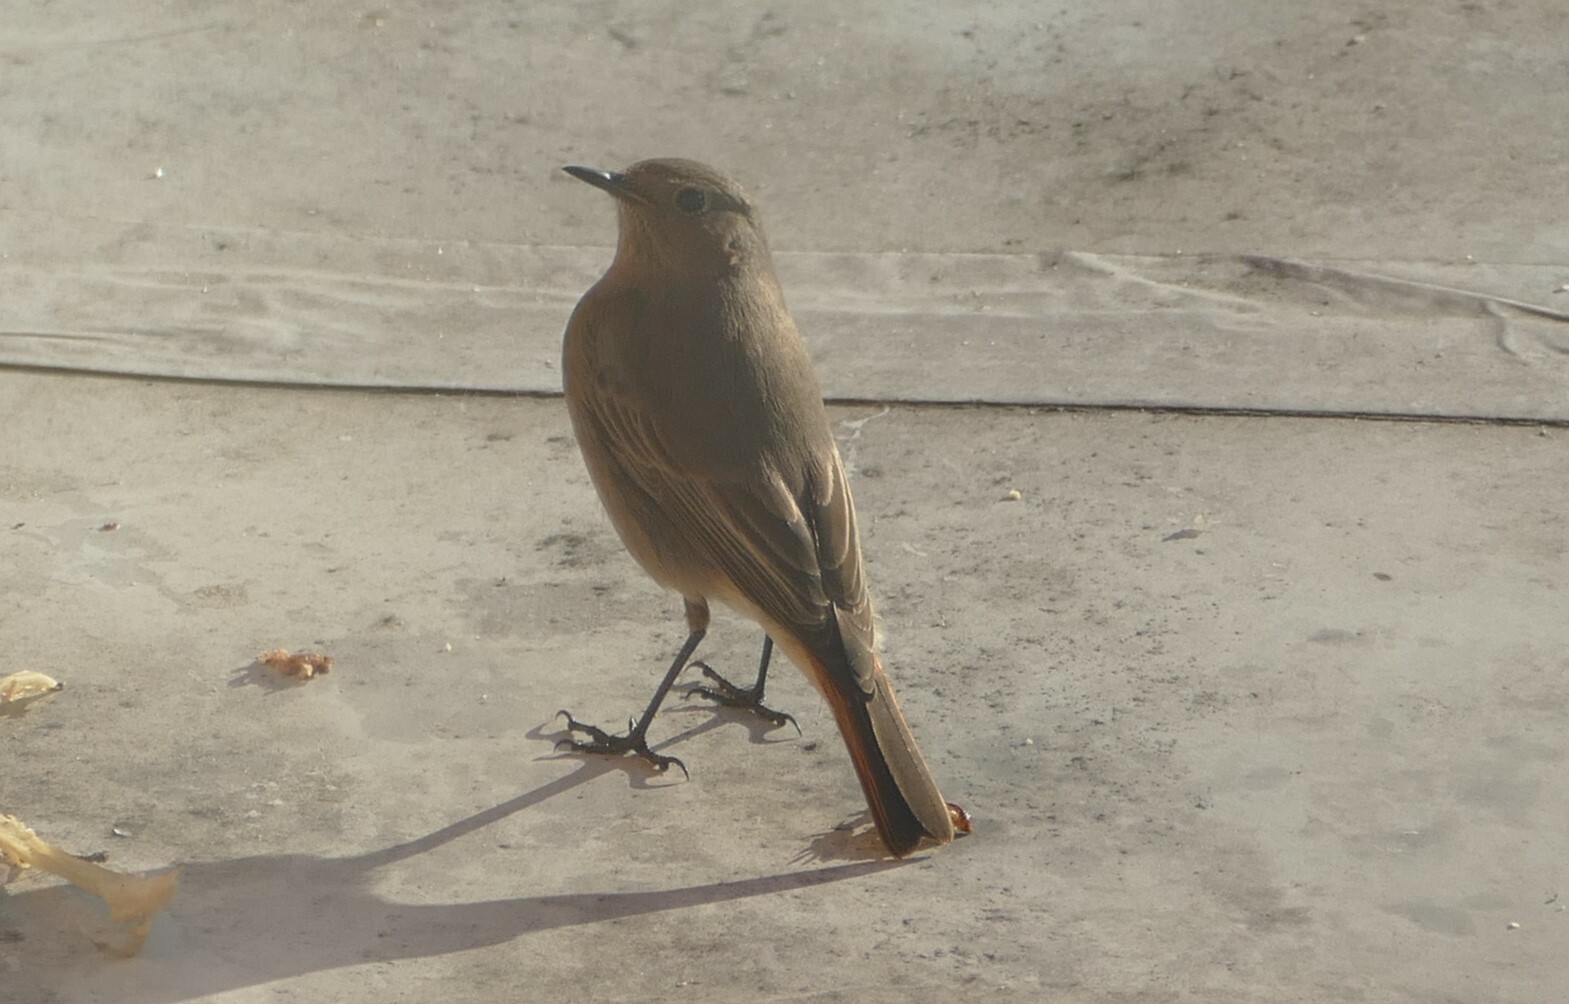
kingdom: Animalia
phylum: Chordata
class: Aves
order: Passeriformes
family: Muscicapidae
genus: Phoenicurus
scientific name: Phoenicurus ochruros
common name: Black redstart
